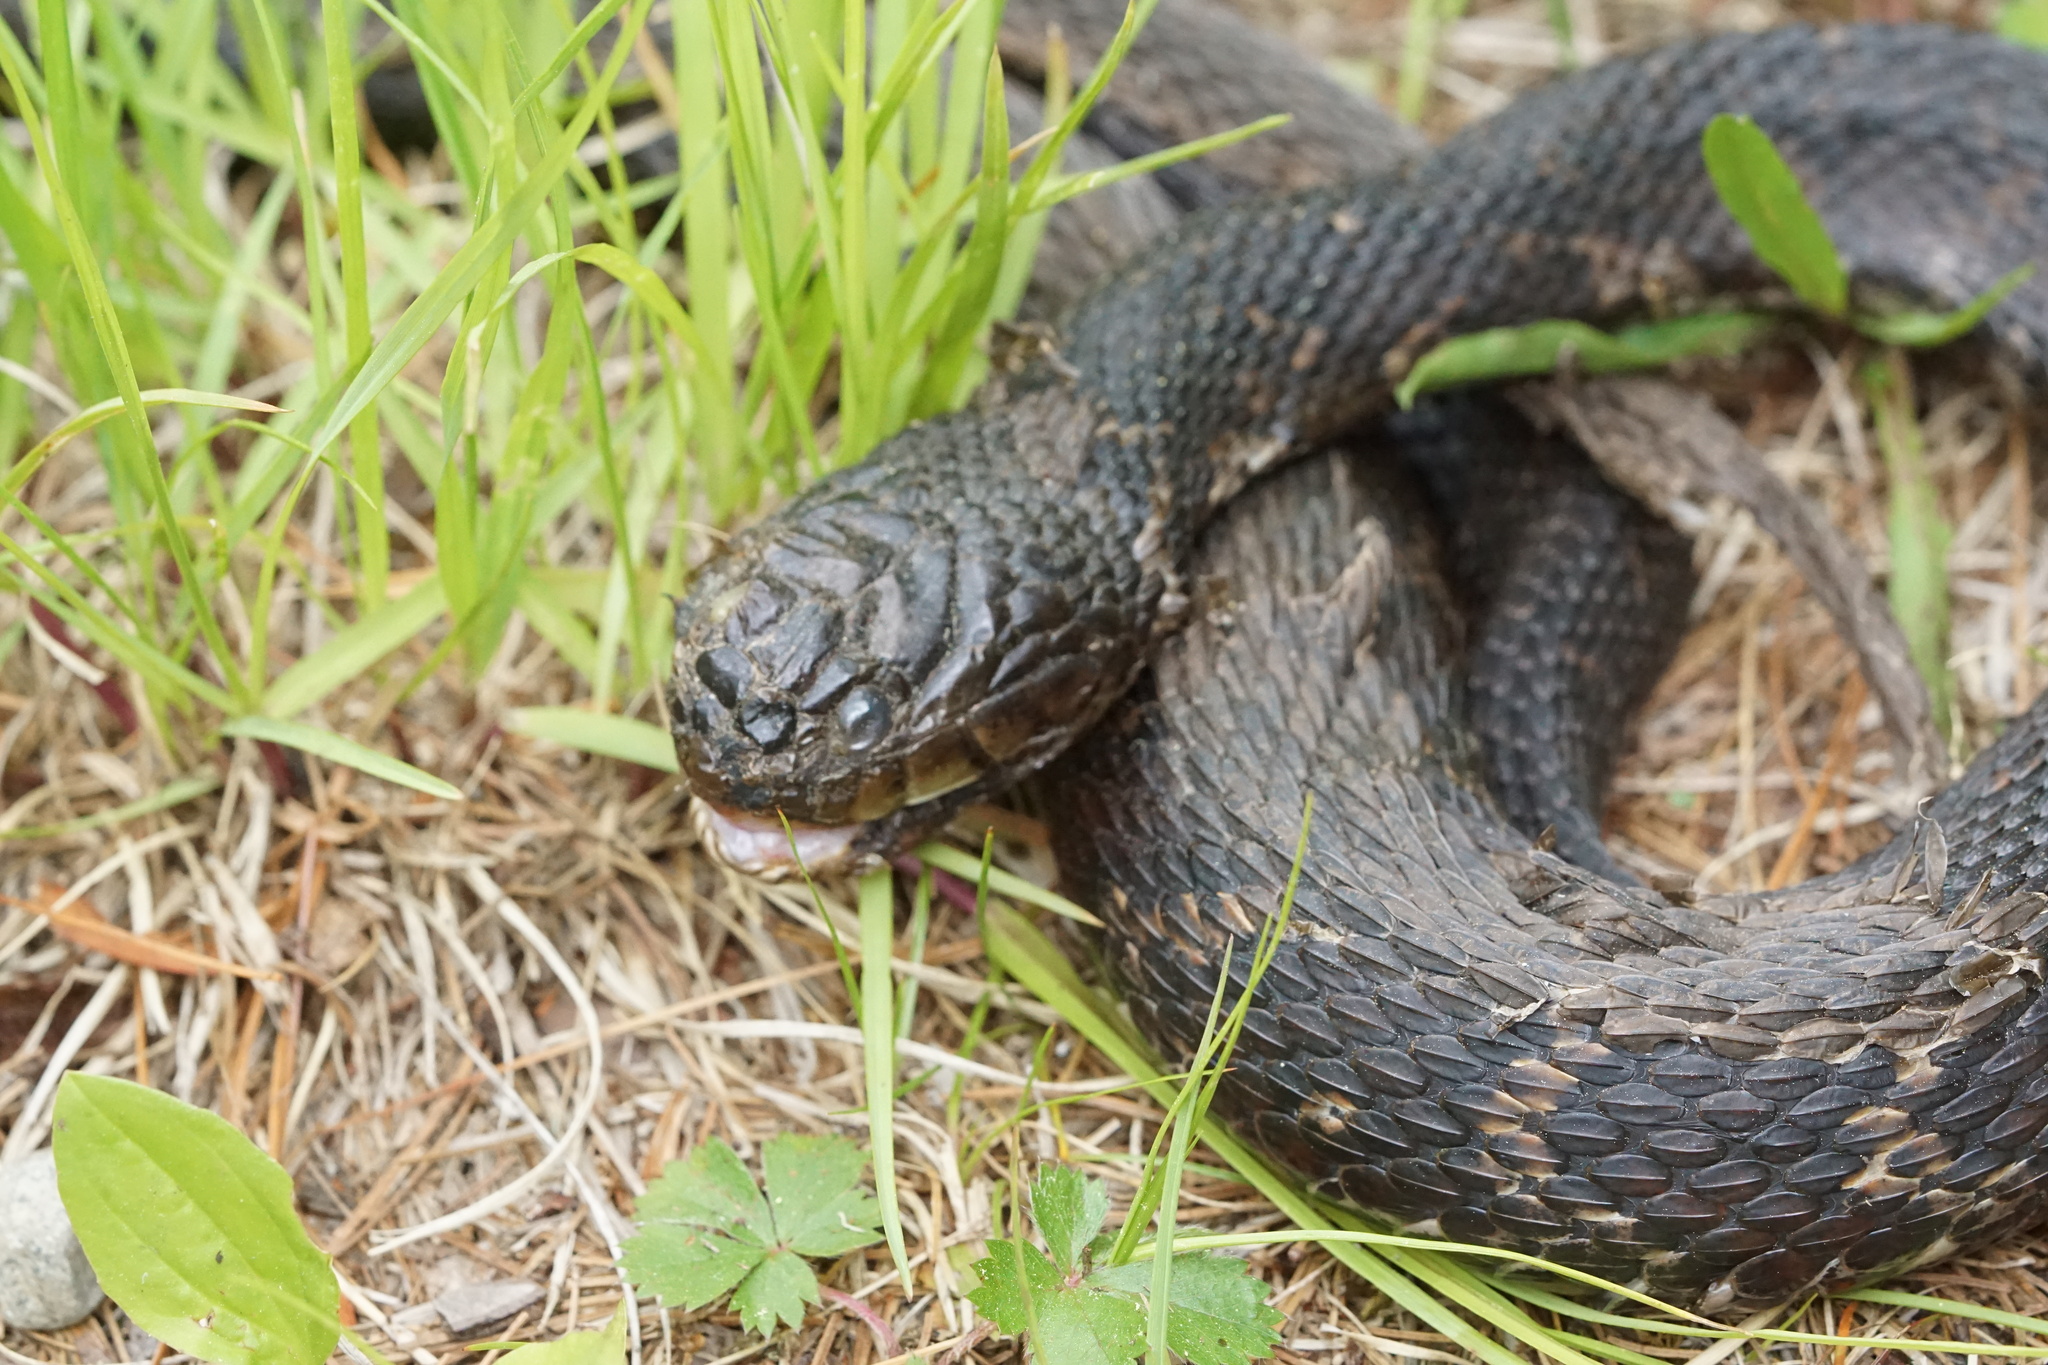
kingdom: Animalia
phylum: Chordata
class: Squamata
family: Colubridae
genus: Nerodia
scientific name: Nerodia sipedon
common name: Northern water snake
